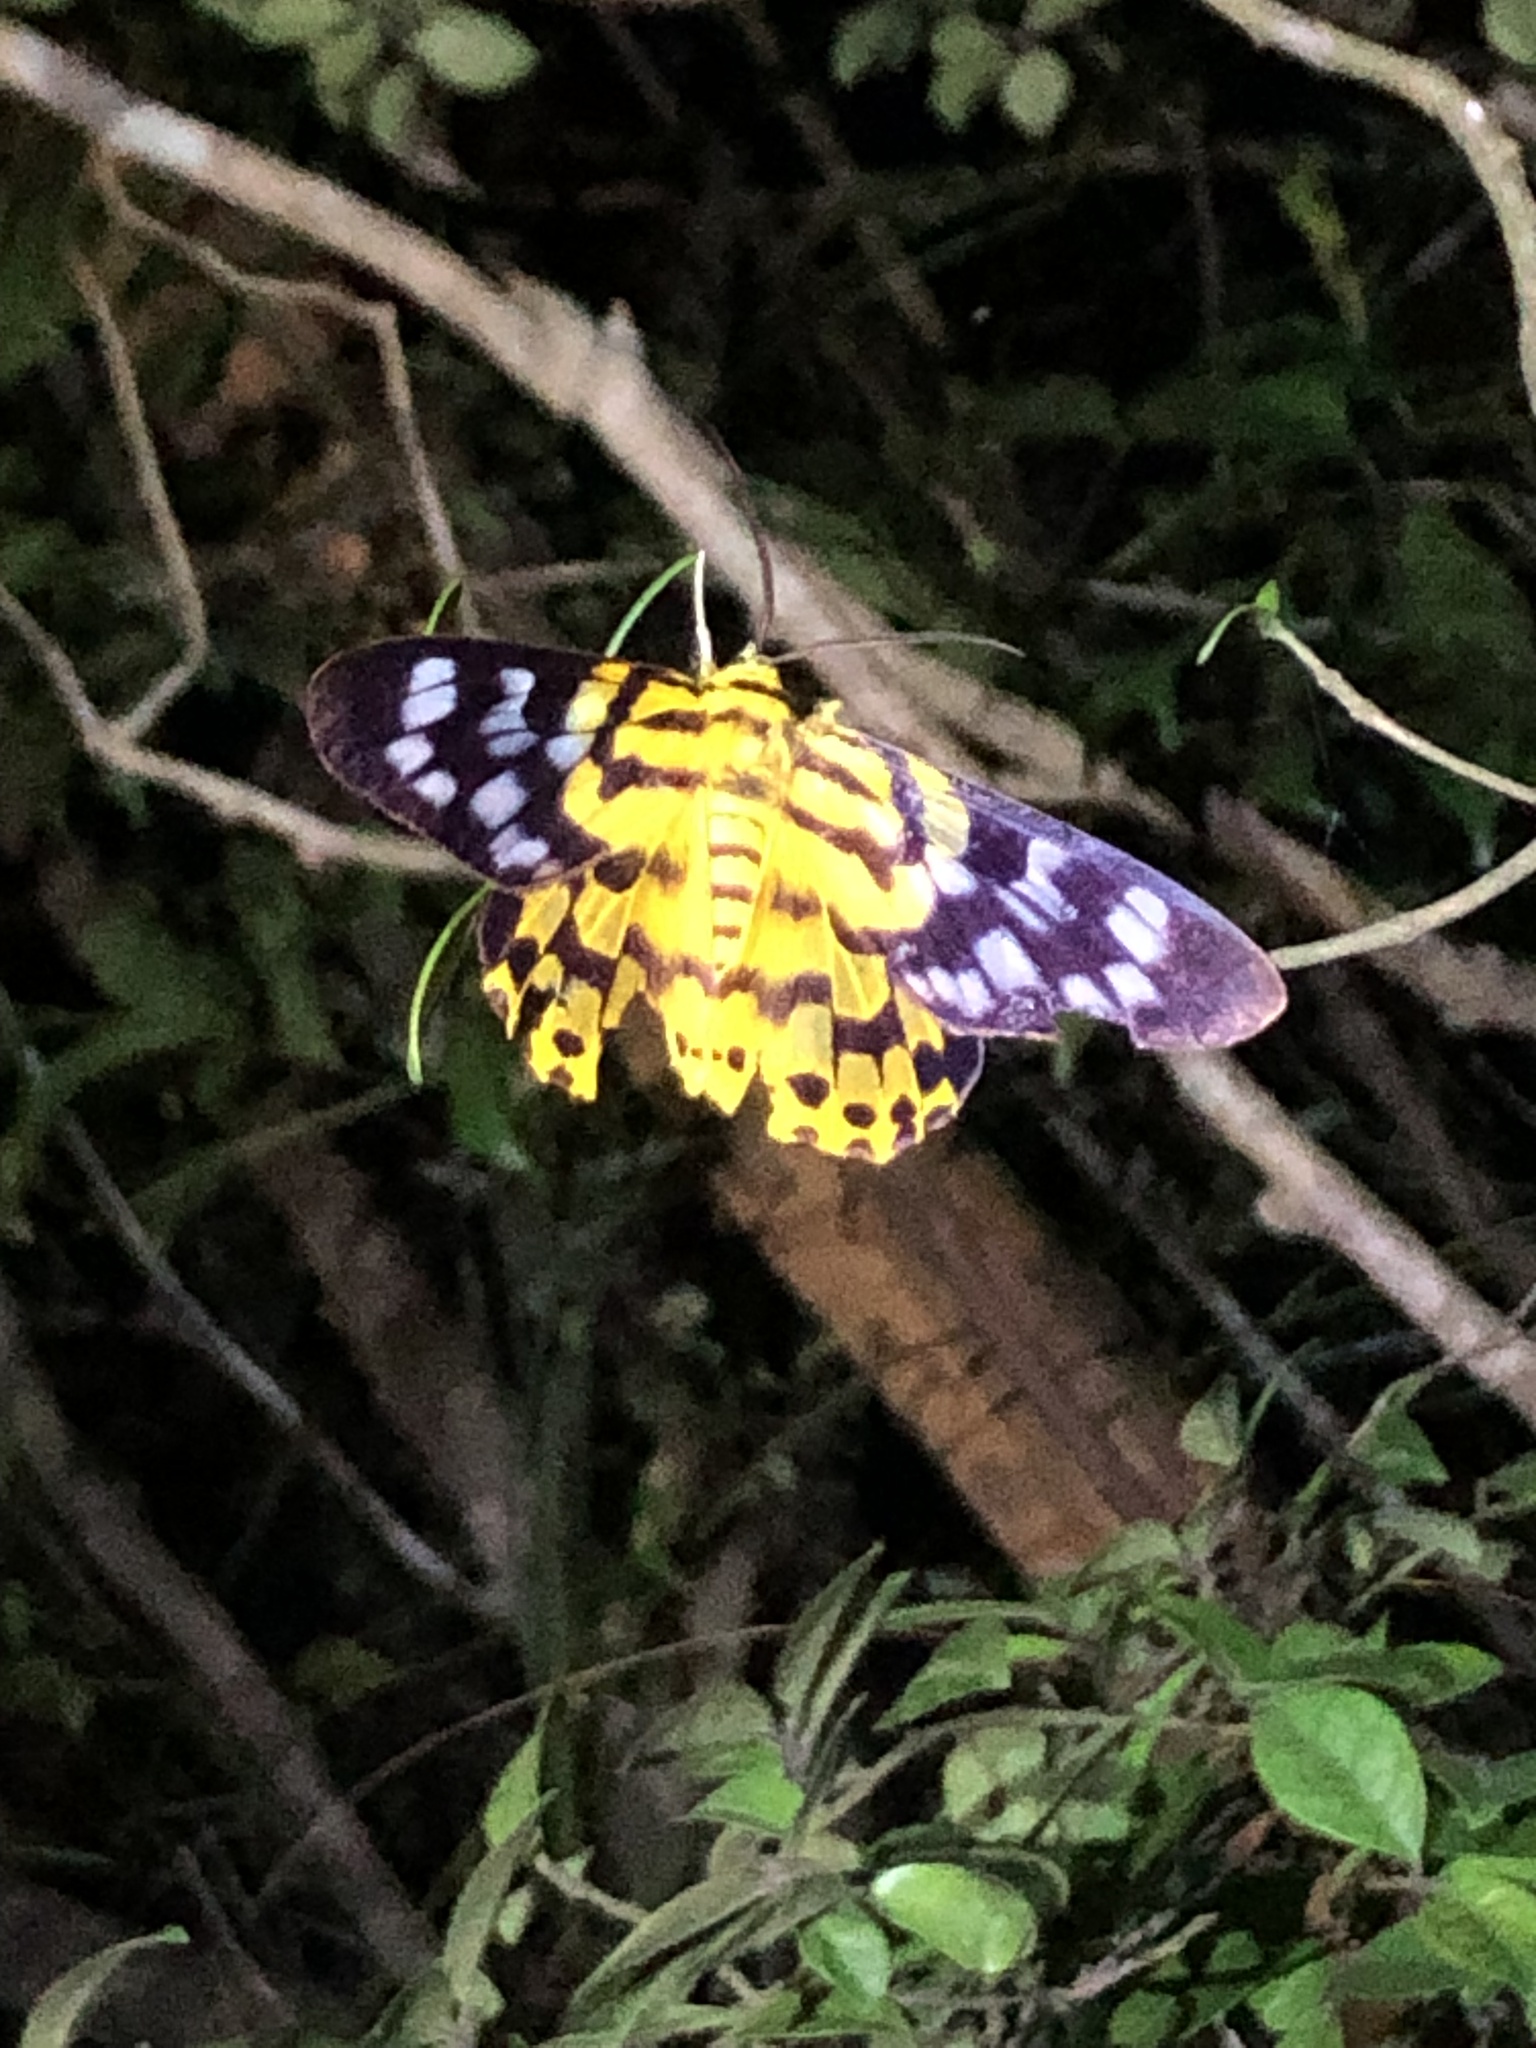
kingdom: Animalia
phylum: Arthropoda
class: Insecta
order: Lepidoptera
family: Geometridae
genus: Dysphania
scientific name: Dysphania militaris
